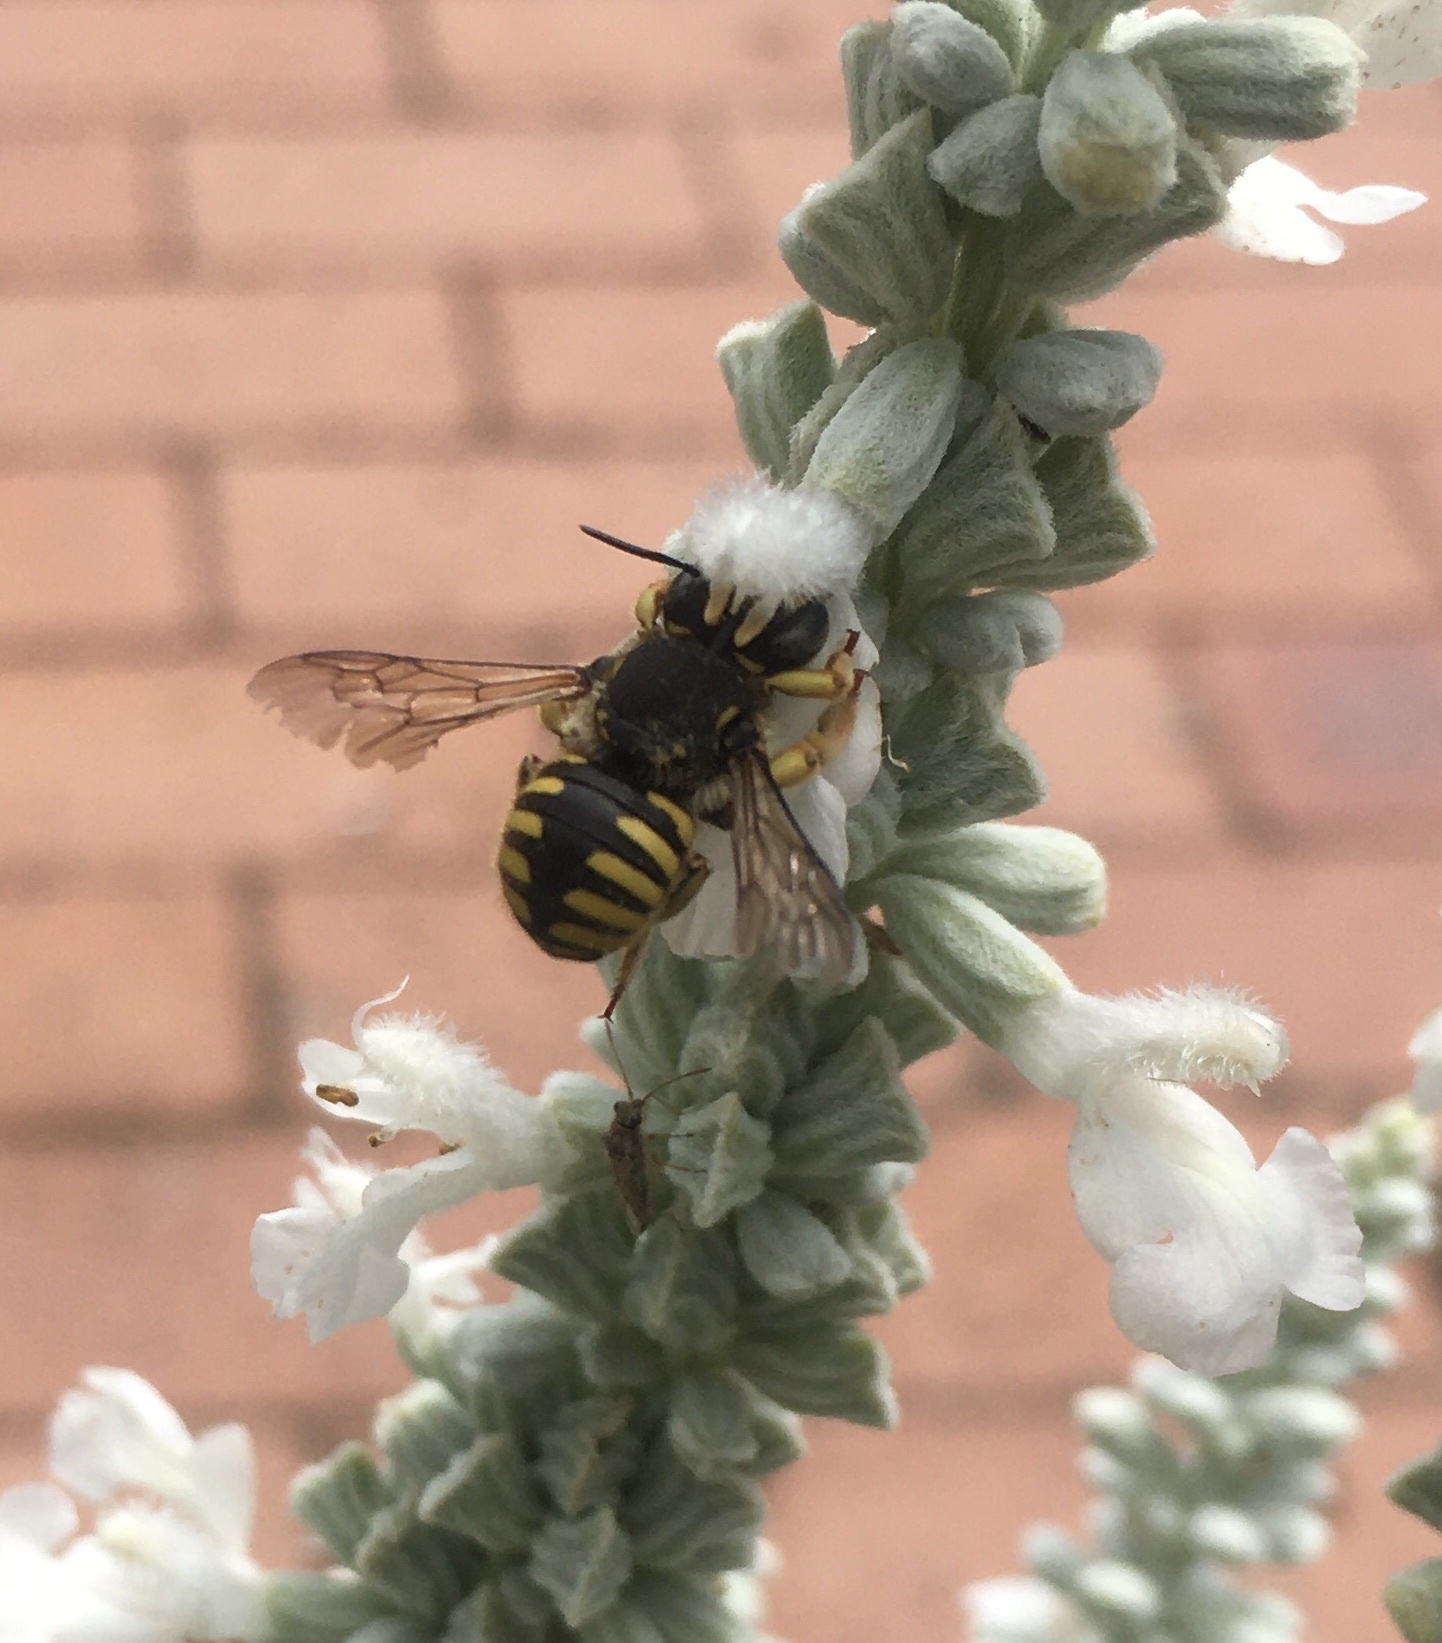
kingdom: Animalia
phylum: Arthropoda
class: Insecta
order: Hymenoptera
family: Megachilidae
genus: Anthidium
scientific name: Anthidium manicatum
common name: Wool carder bee
